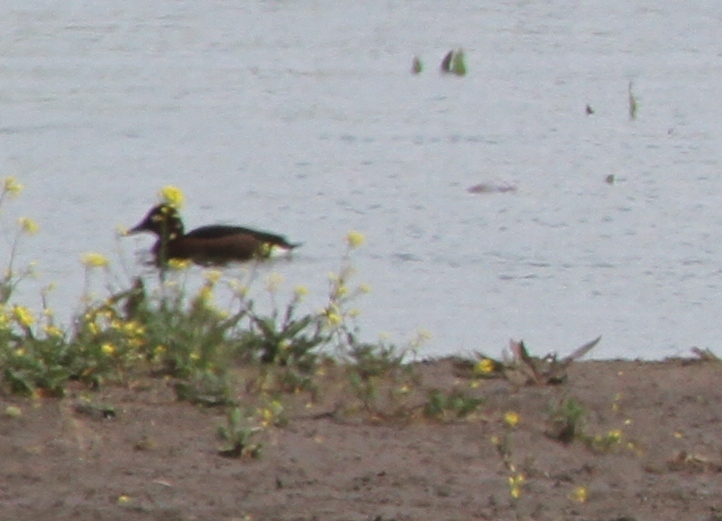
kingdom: Animalia
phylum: Chordata
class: Aves
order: Anseriformes
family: Anatidae
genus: Aythya
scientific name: Aythya nyroca
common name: Ferruginous duck
